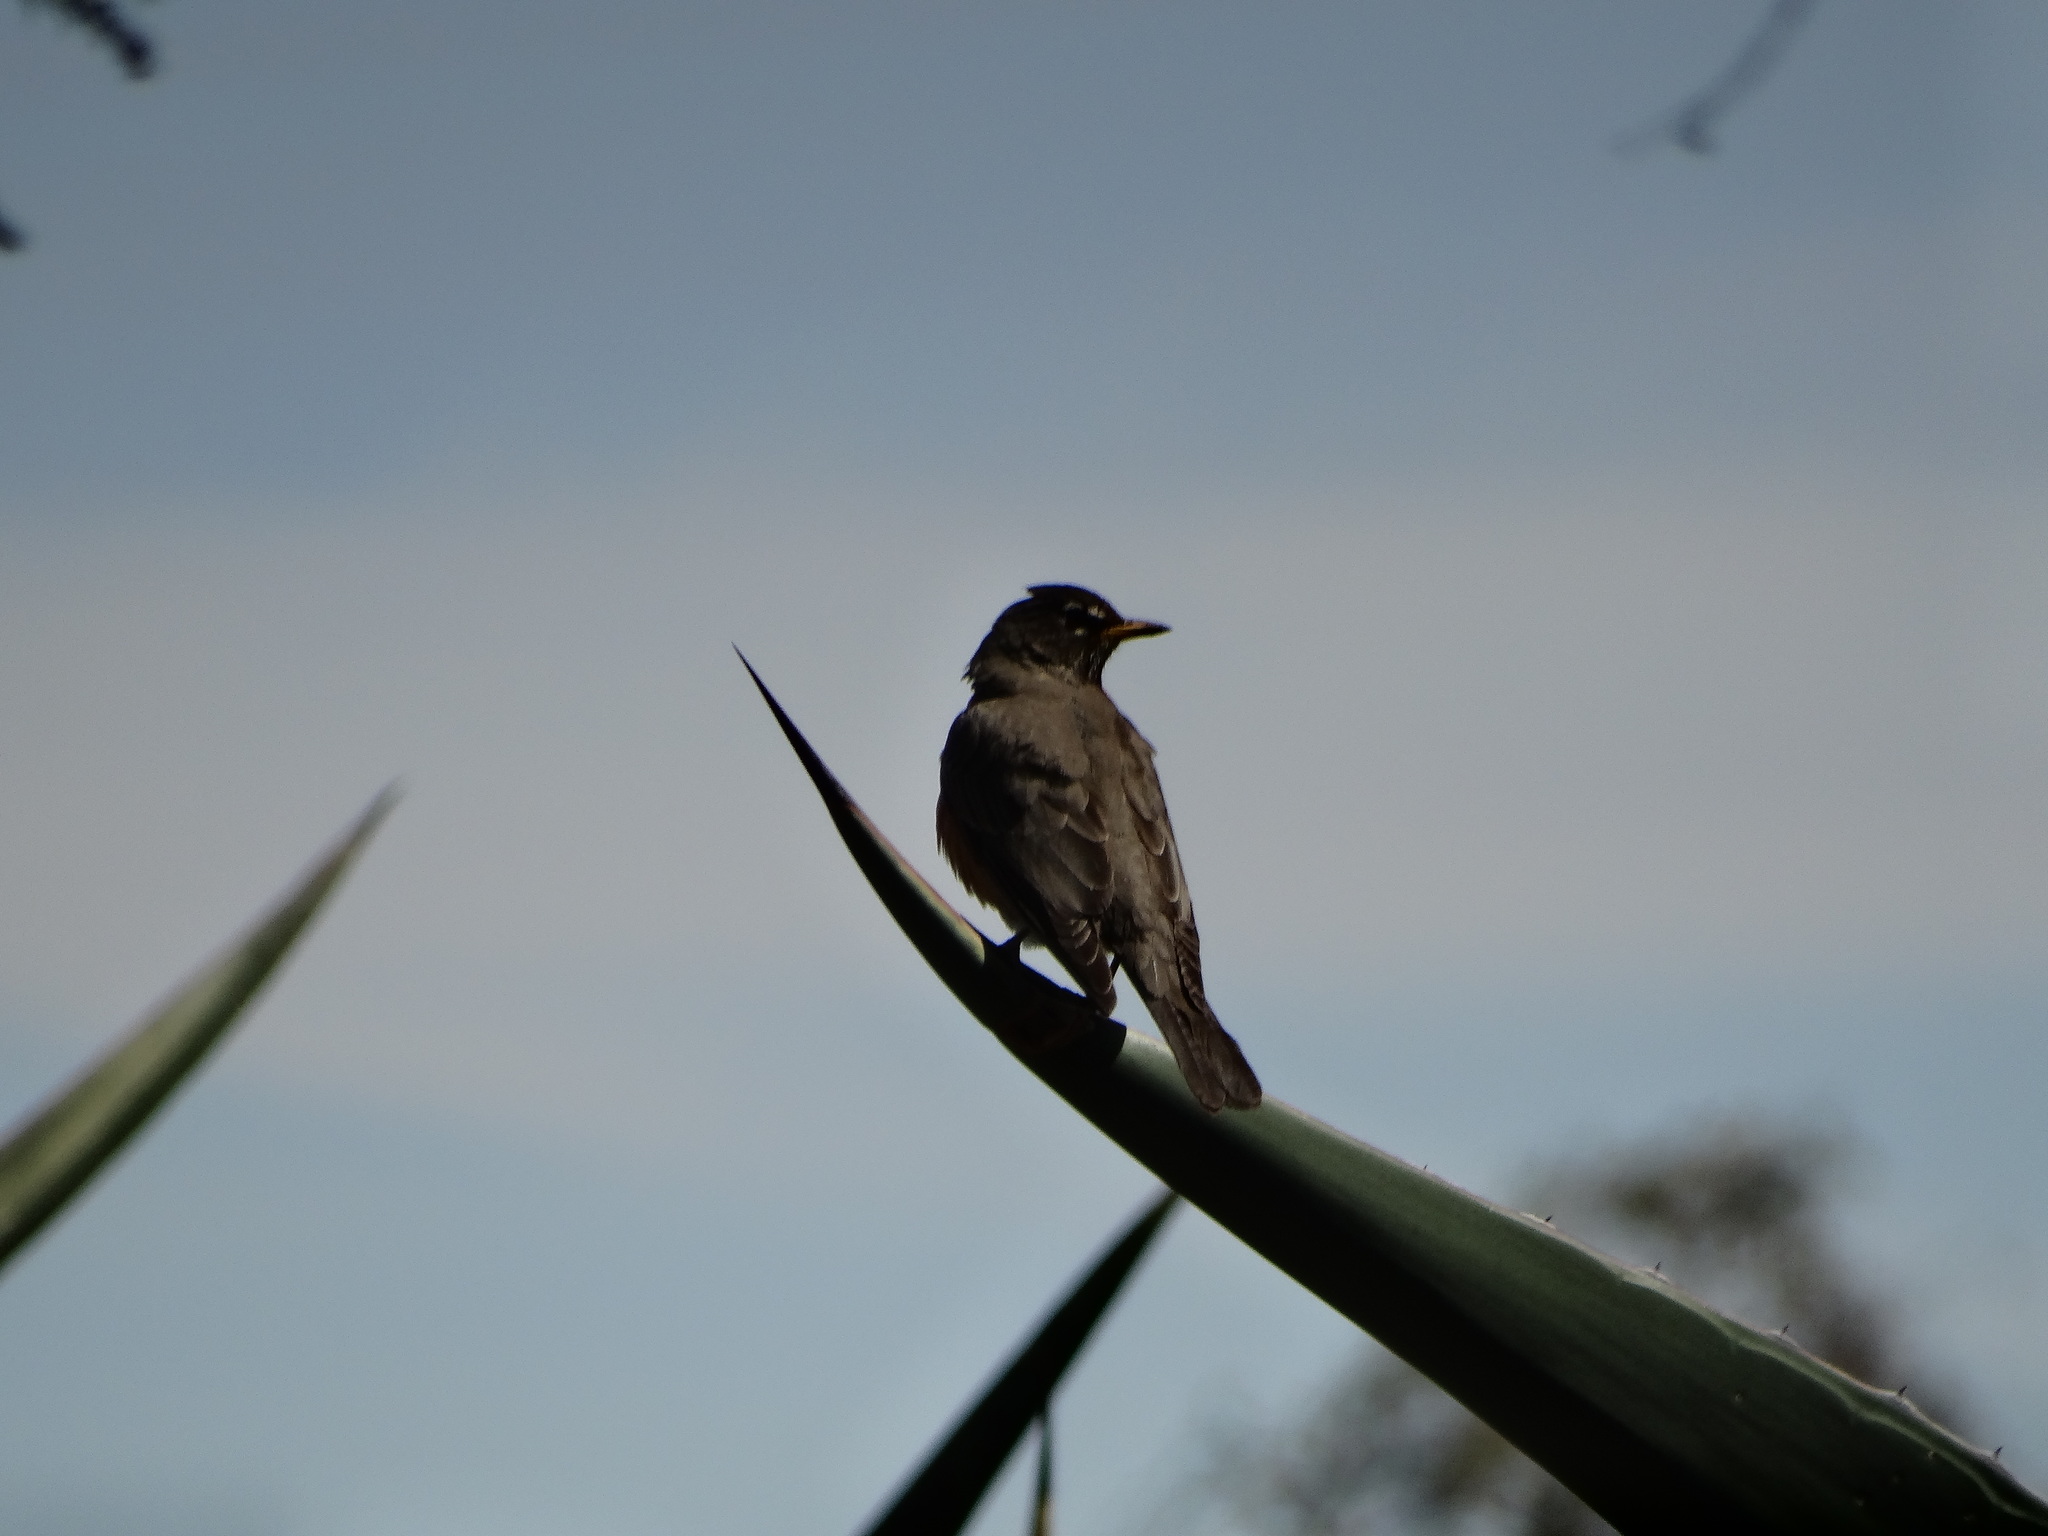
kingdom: Animalia
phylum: Chordata
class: Aves
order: Passeriformes
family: Turdidae
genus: Turdus
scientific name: Turdus migratorius
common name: American robin
